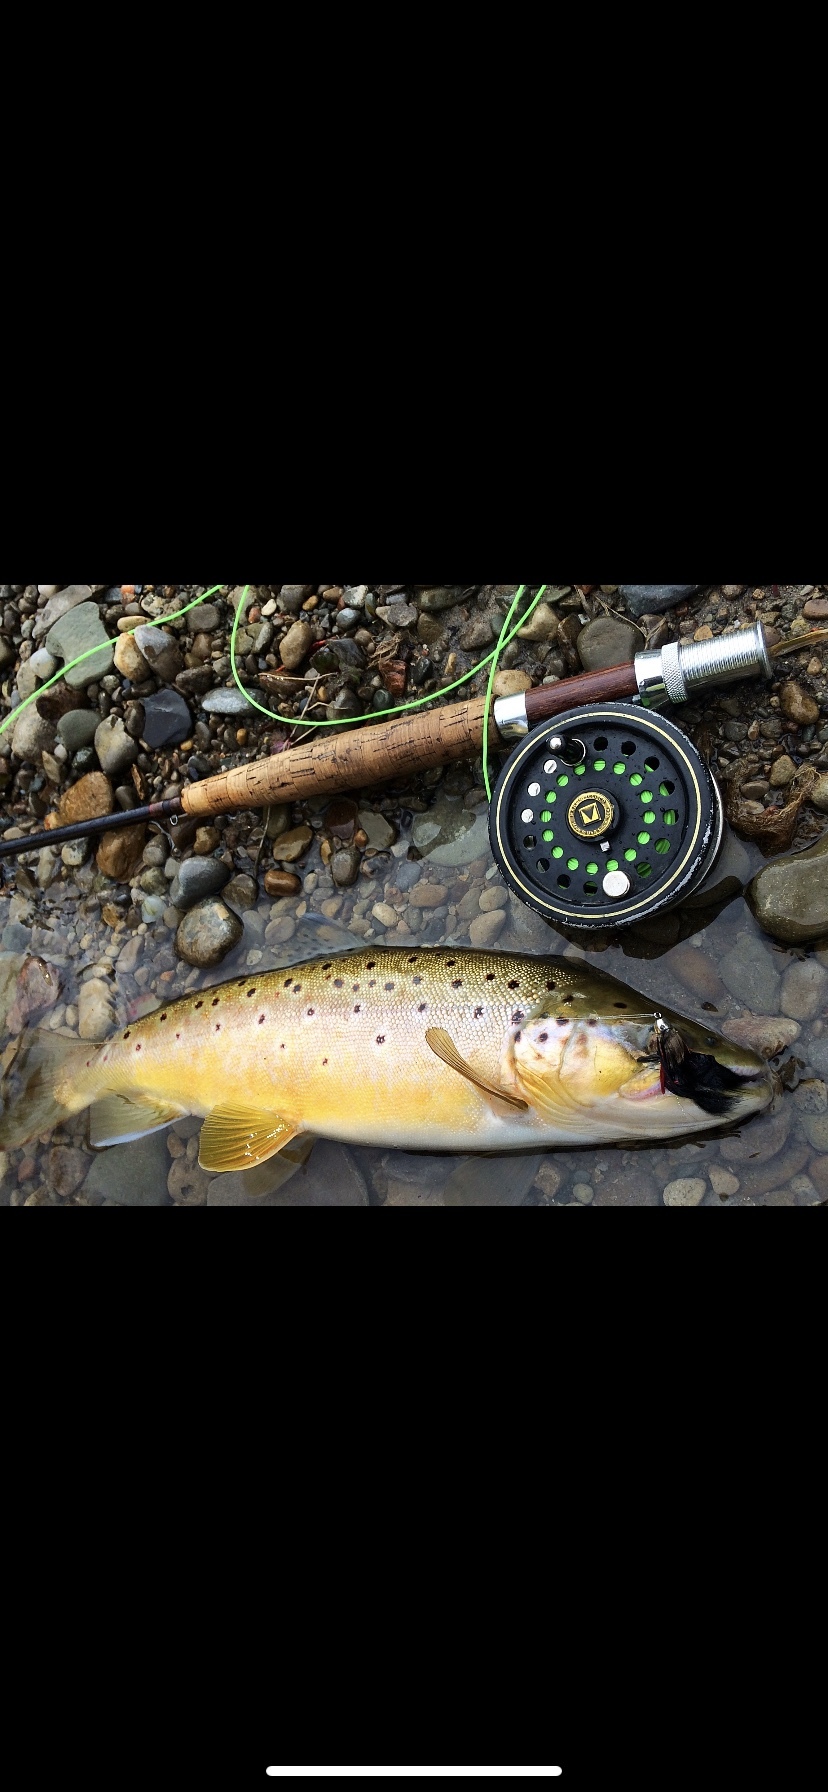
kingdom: Animalia
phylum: Chordata
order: Salmoniformes
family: Salmonidae
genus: Salmo
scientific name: Salmo trutta
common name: Brown trout
